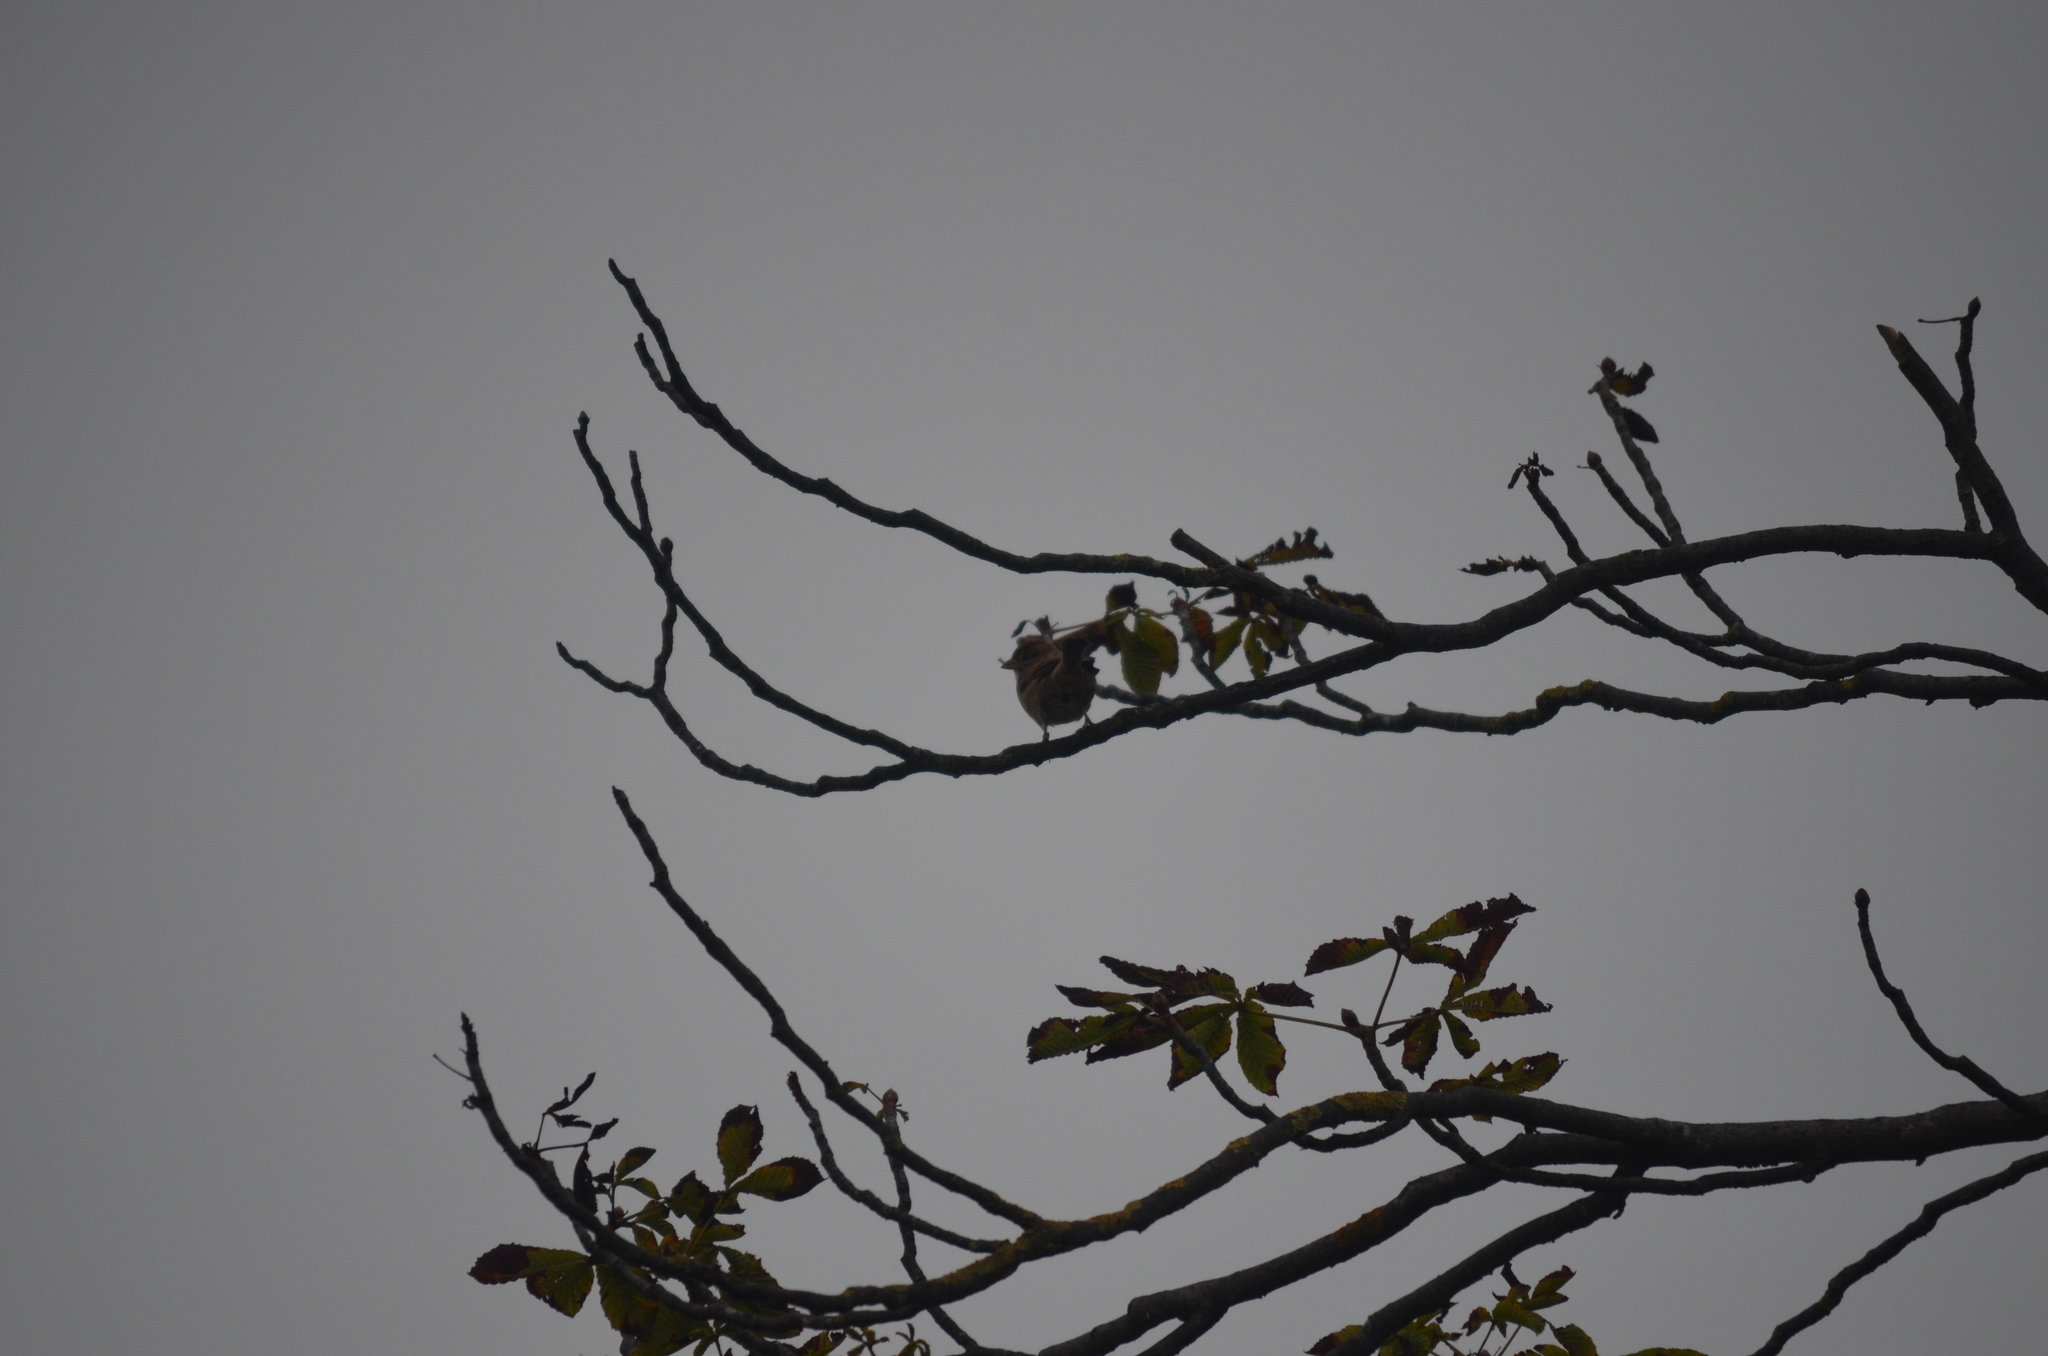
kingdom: Animalia
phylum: Chordata
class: Aves
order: Passeriformes
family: Passeridae
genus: Passer
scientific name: Passer domesticus
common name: House sparrow
